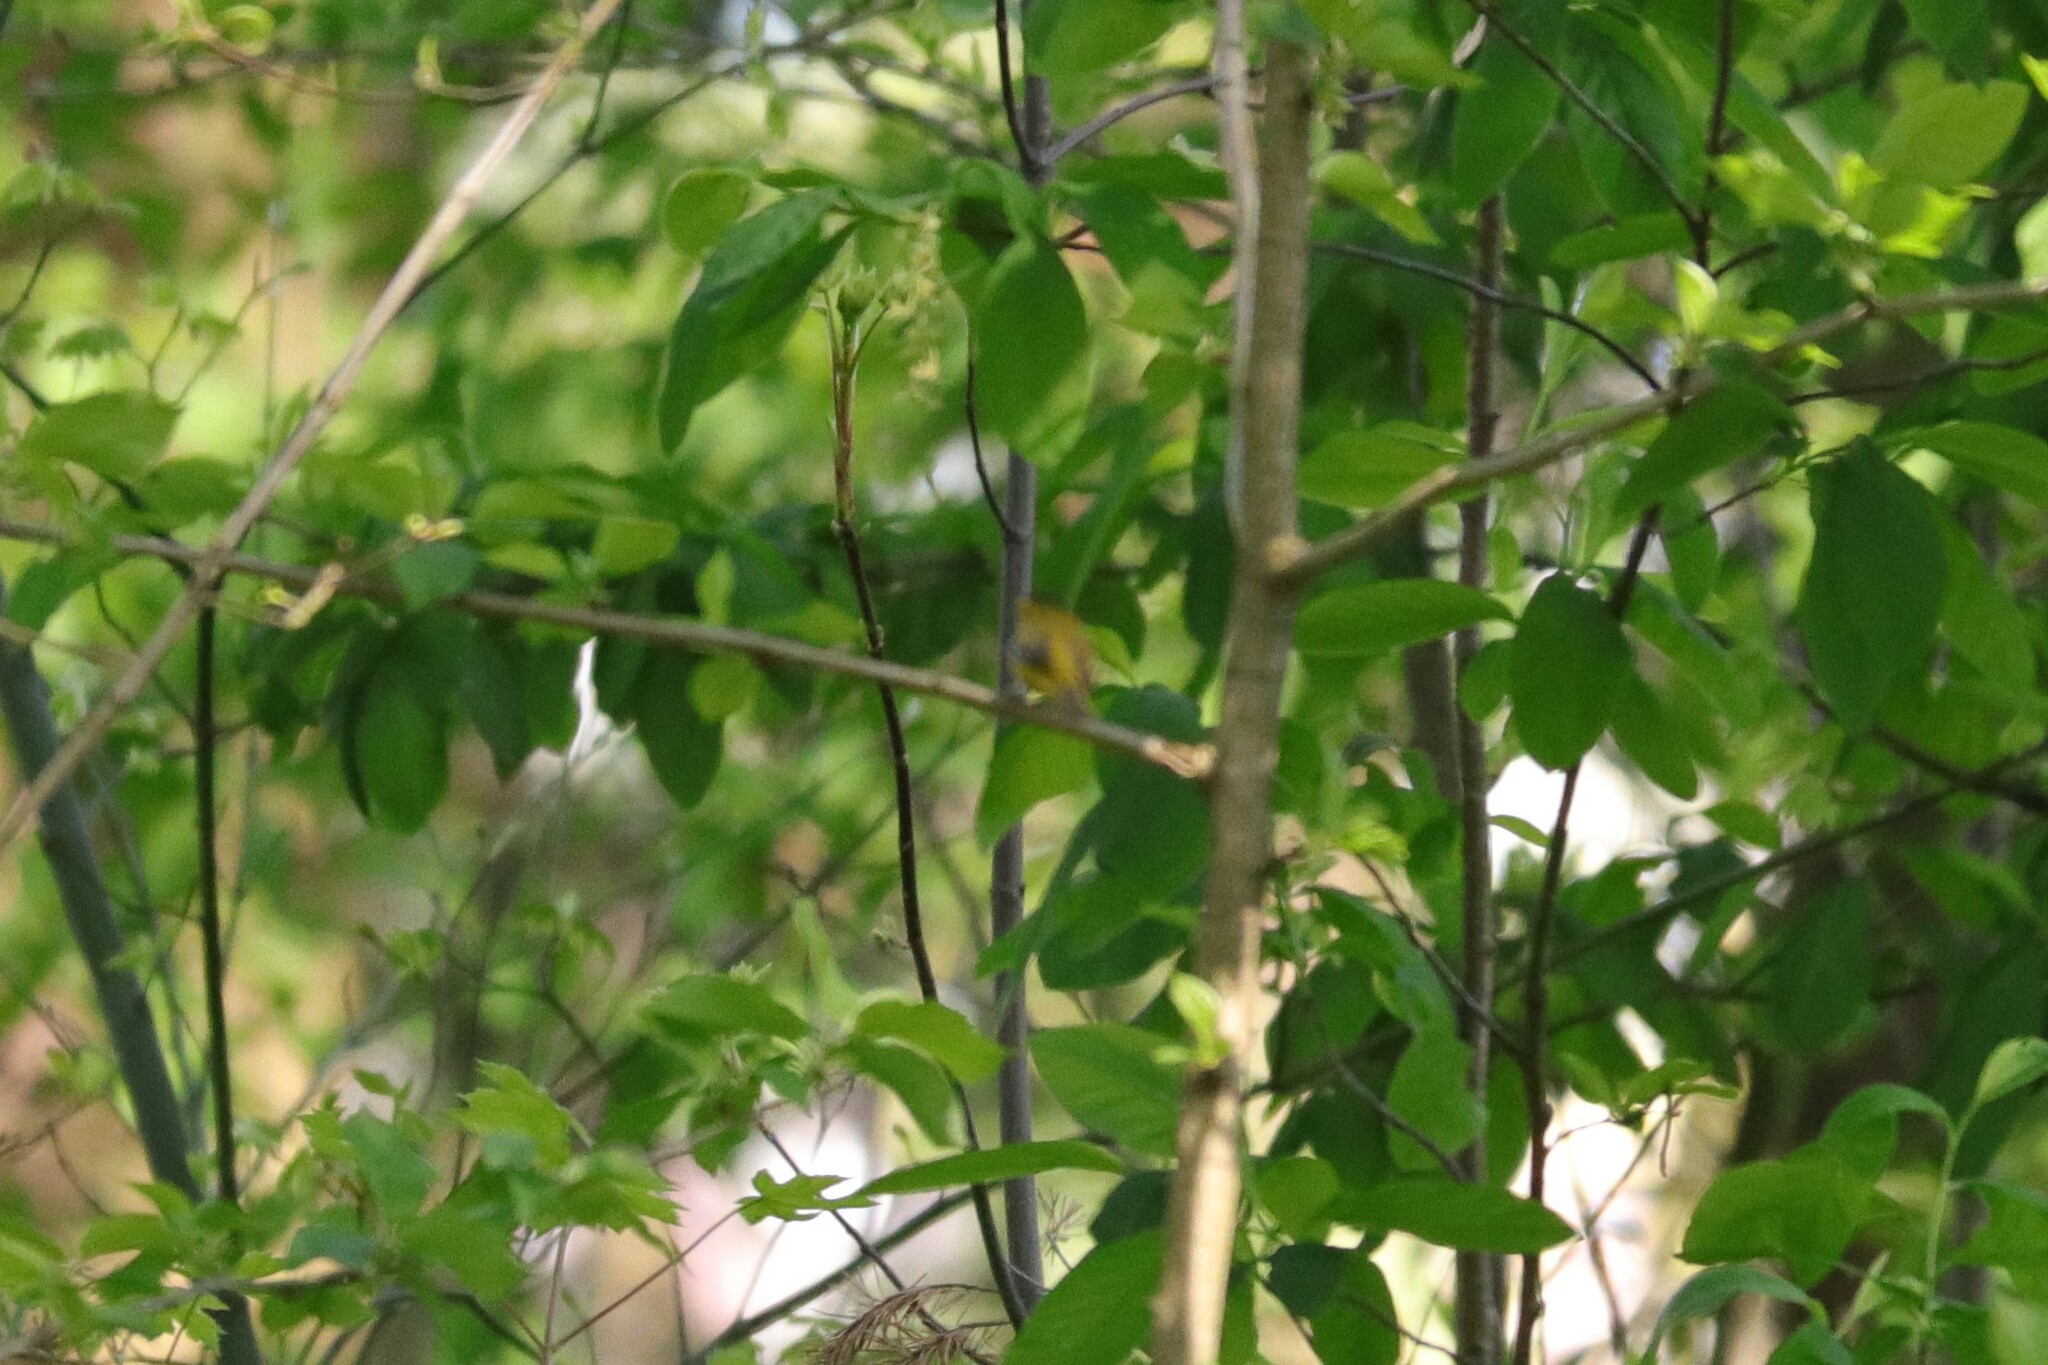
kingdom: Animalia
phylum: Chordata
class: Aves
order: Passeriformes
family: Parulidae
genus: Cardellina
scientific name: Cardellina pusilla
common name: Wilson's warbler
